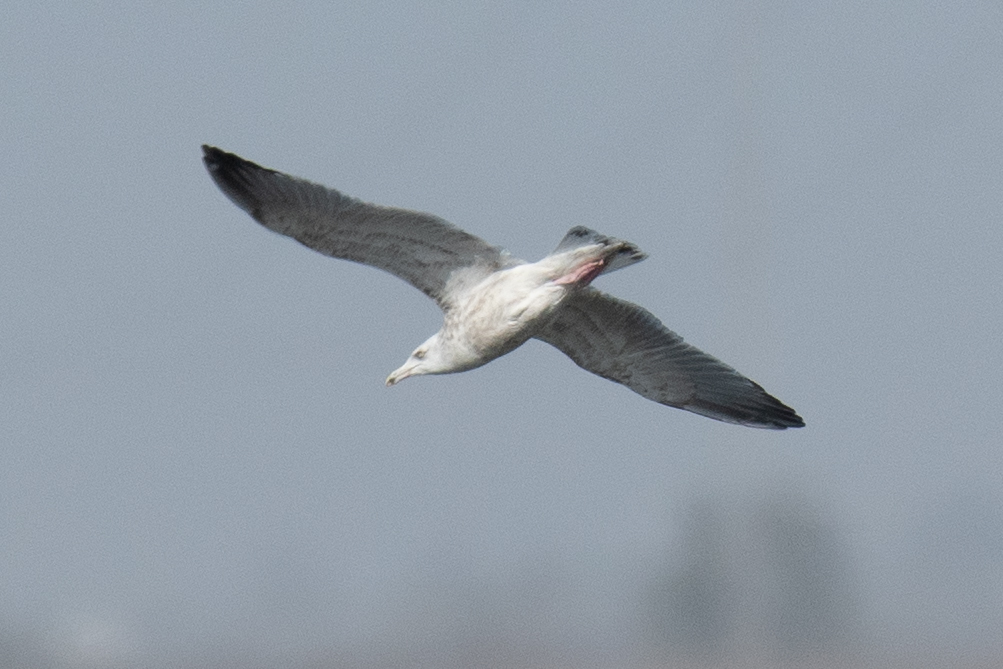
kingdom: Animalia
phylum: Chordata
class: Aves
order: Charadriiformes
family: Laridae
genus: Larus
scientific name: Larus argentatus
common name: Herring gull
